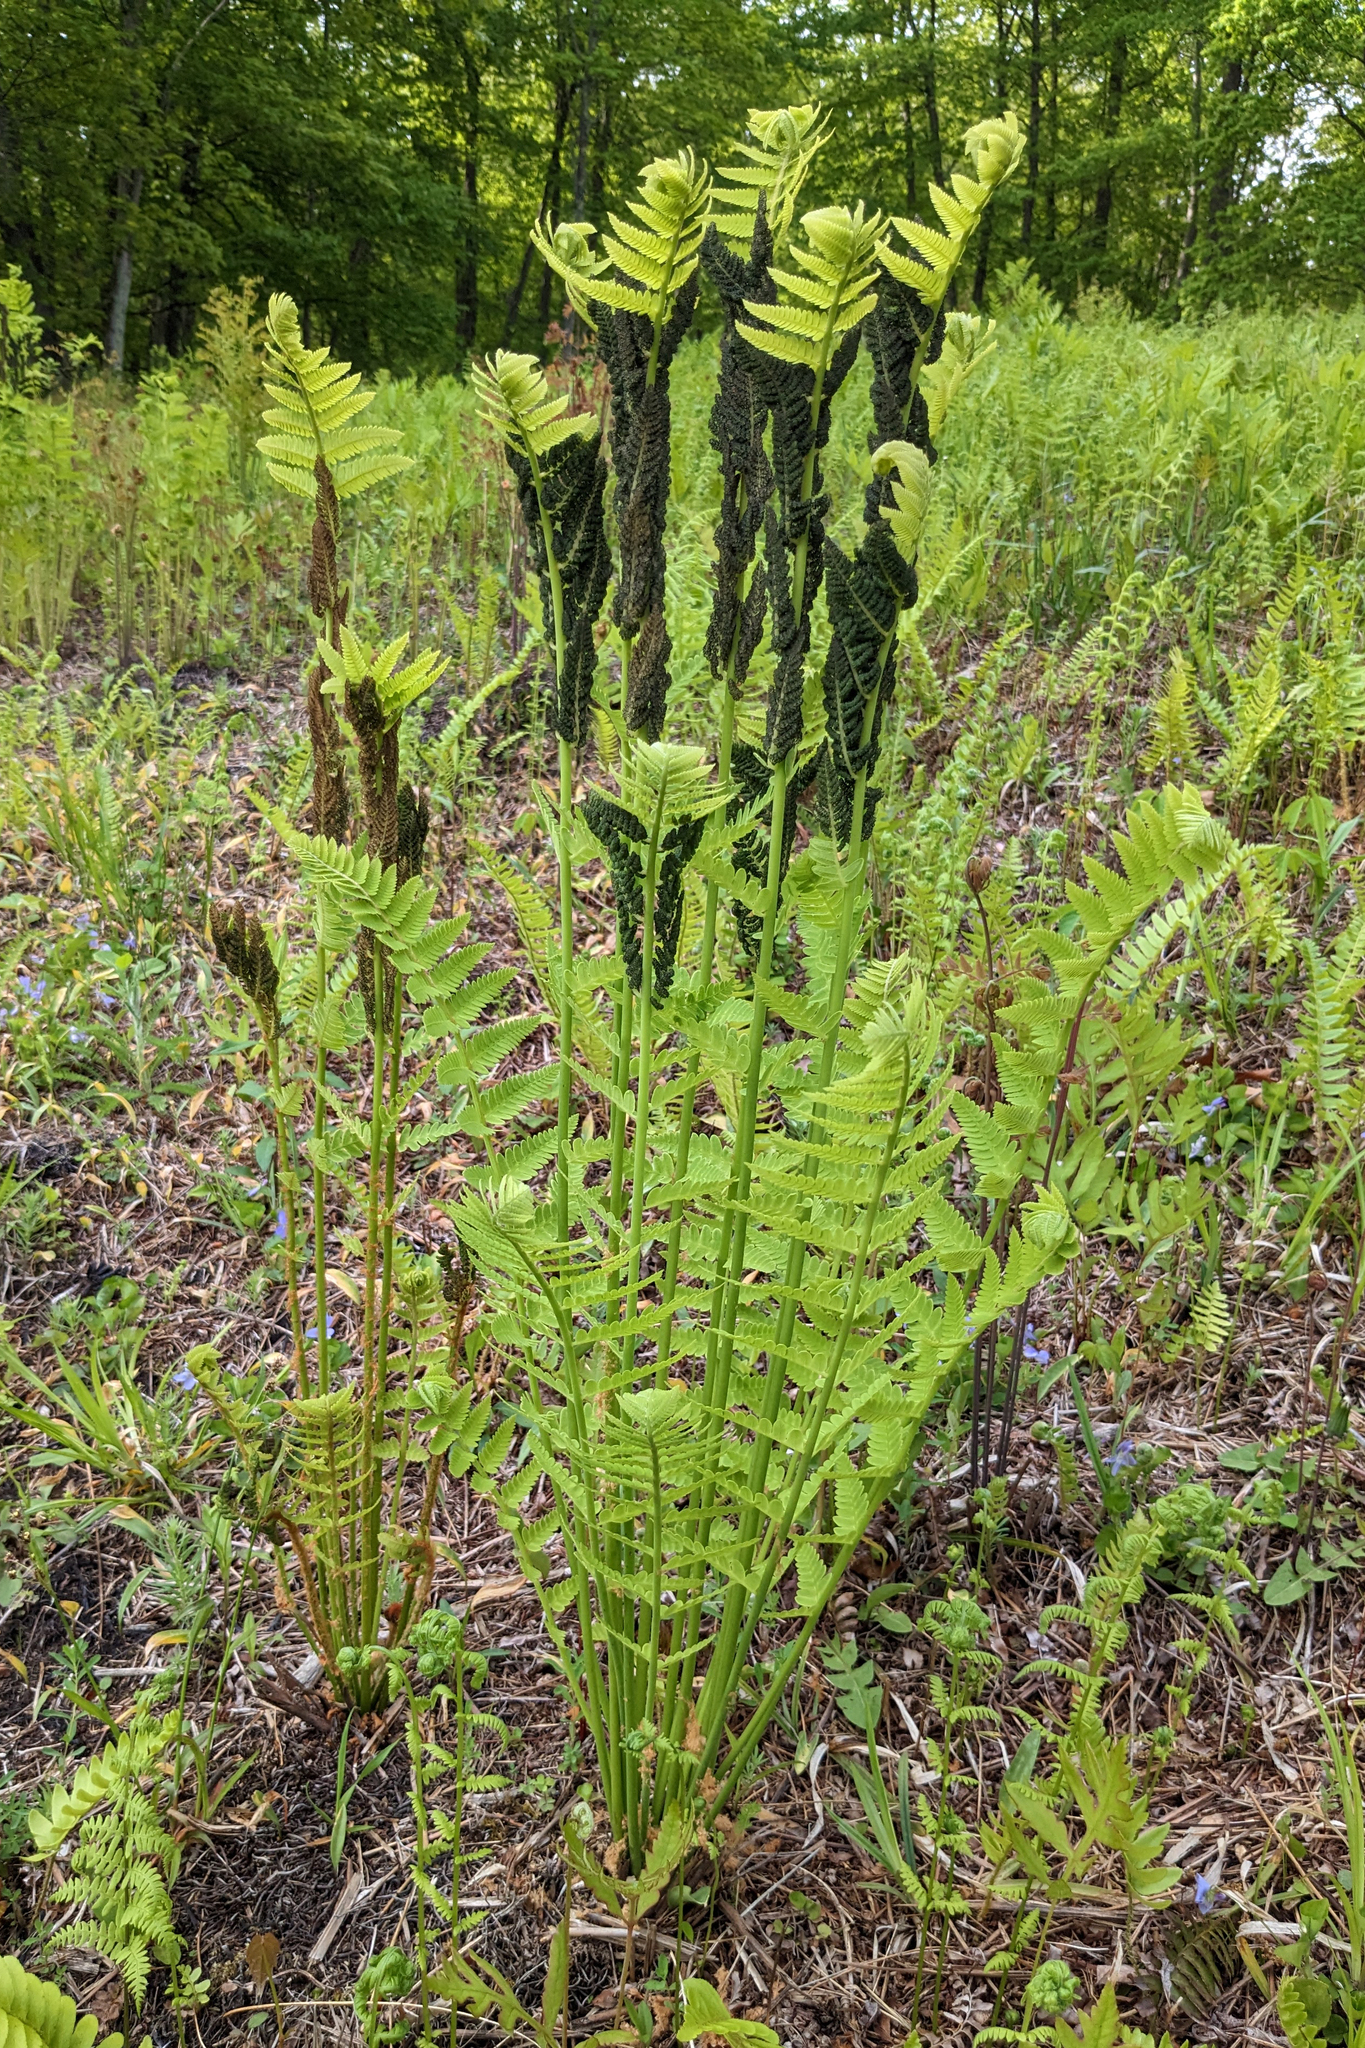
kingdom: Plantae
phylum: Tracheophyta
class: Polypodiopsida
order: Osmundales
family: Osmundaceae
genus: Claytosmunda
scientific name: Claytosmunda claytoniana
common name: Clayton's fern
